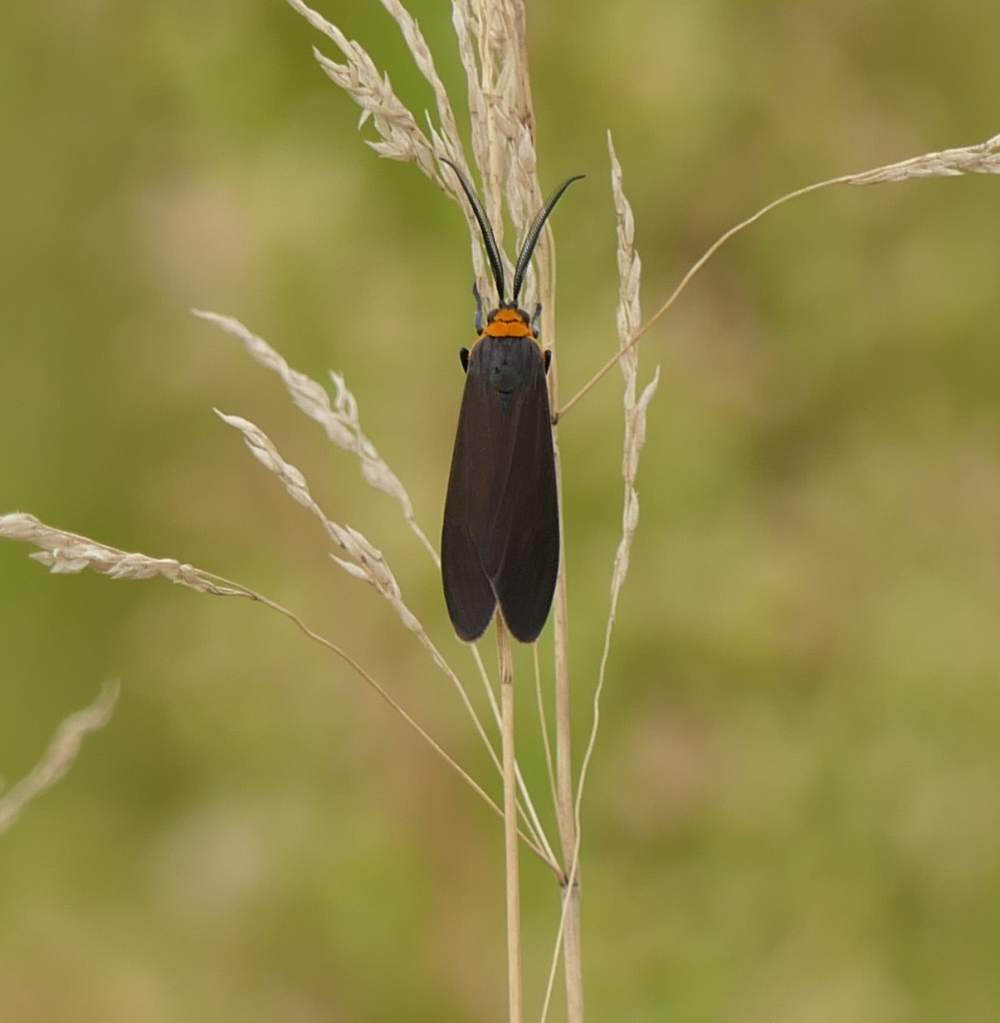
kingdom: Animalia
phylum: Arthropoda
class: Insecta
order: Lepidoptera
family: Erebidae
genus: Cisseps
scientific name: Cisseps fulvicollis
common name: Yellow-collared scape moth
